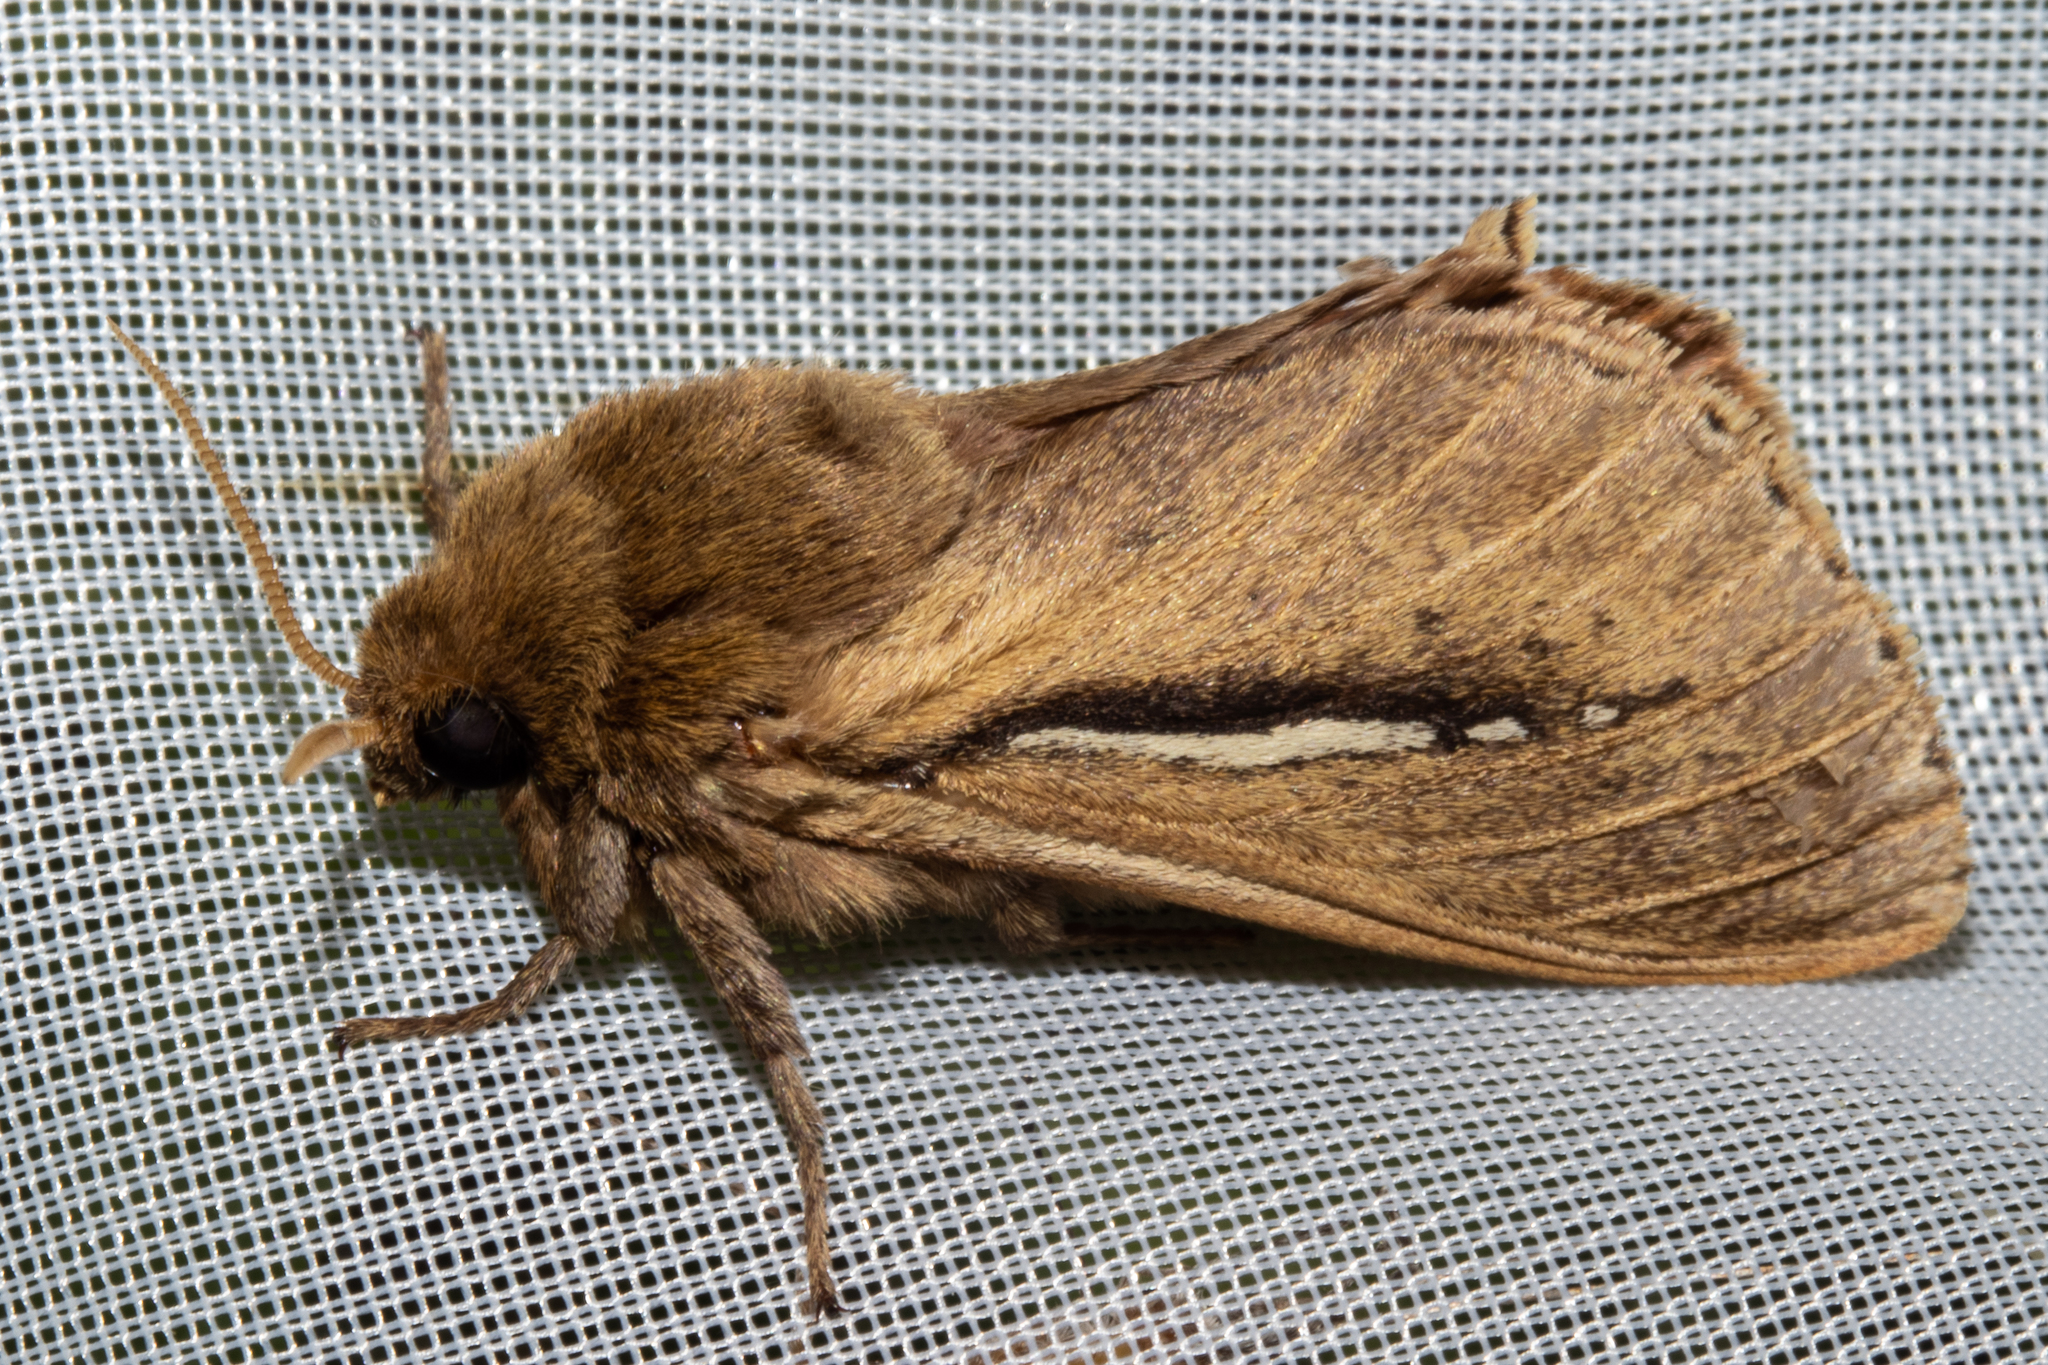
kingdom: Animalia
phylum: Arthropoda
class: Insecta
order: Lepidoptera
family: Hepialidae
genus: Wiseana
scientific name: Wiseana umbraculatus
